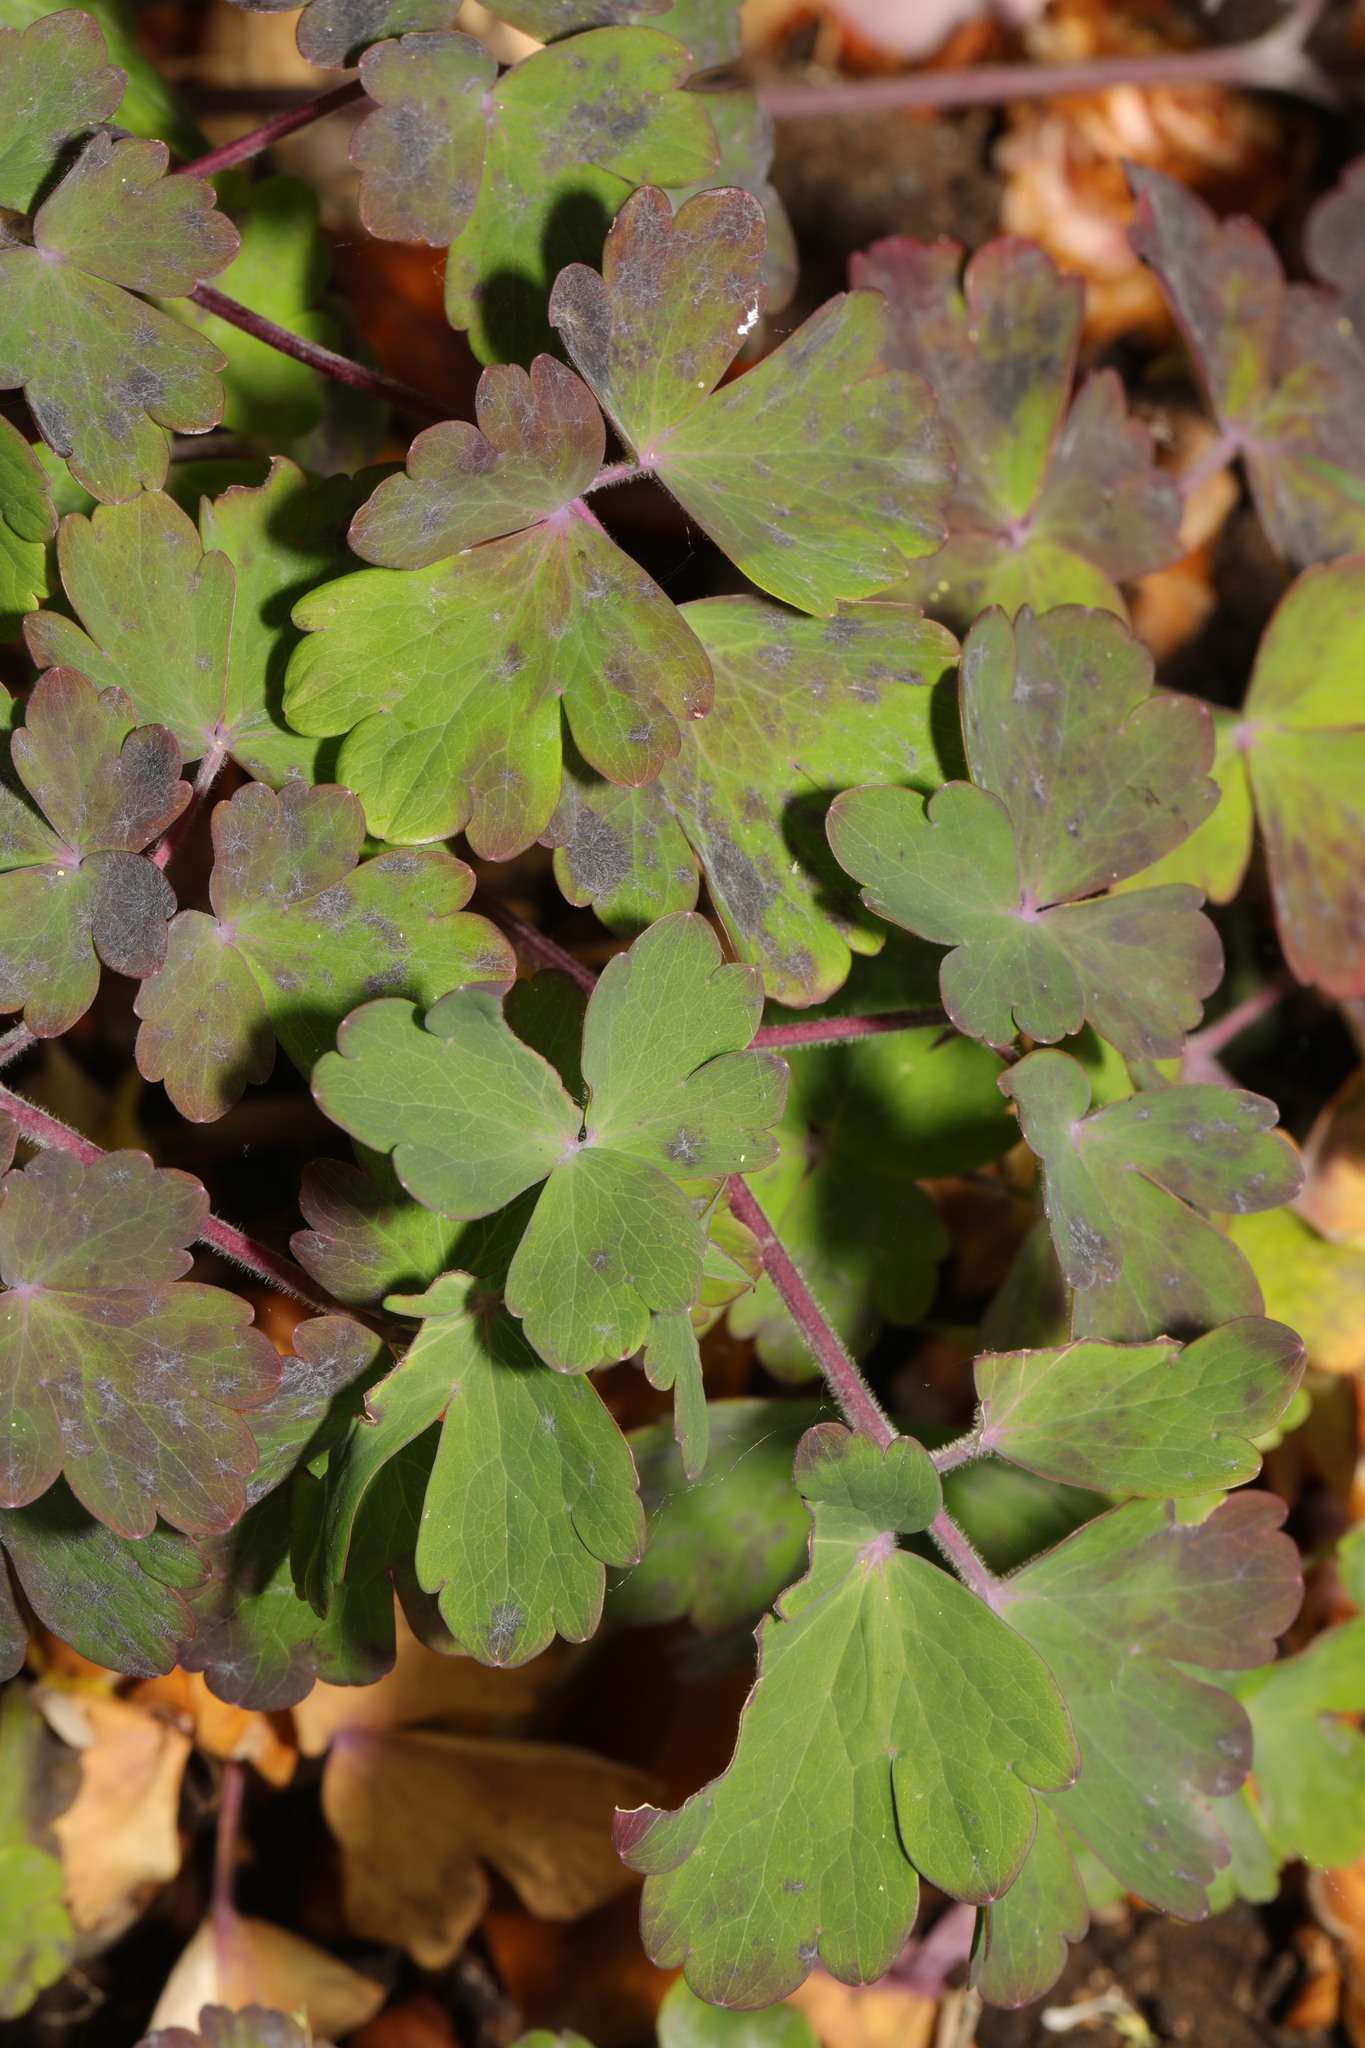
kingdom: Plantae
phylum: Tracheophyta
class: Magnoliopsida
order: Ranunculales
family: Ranunculaceae
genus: Aquilegia
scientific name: Aquilegia vulgaris
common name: Columbine
